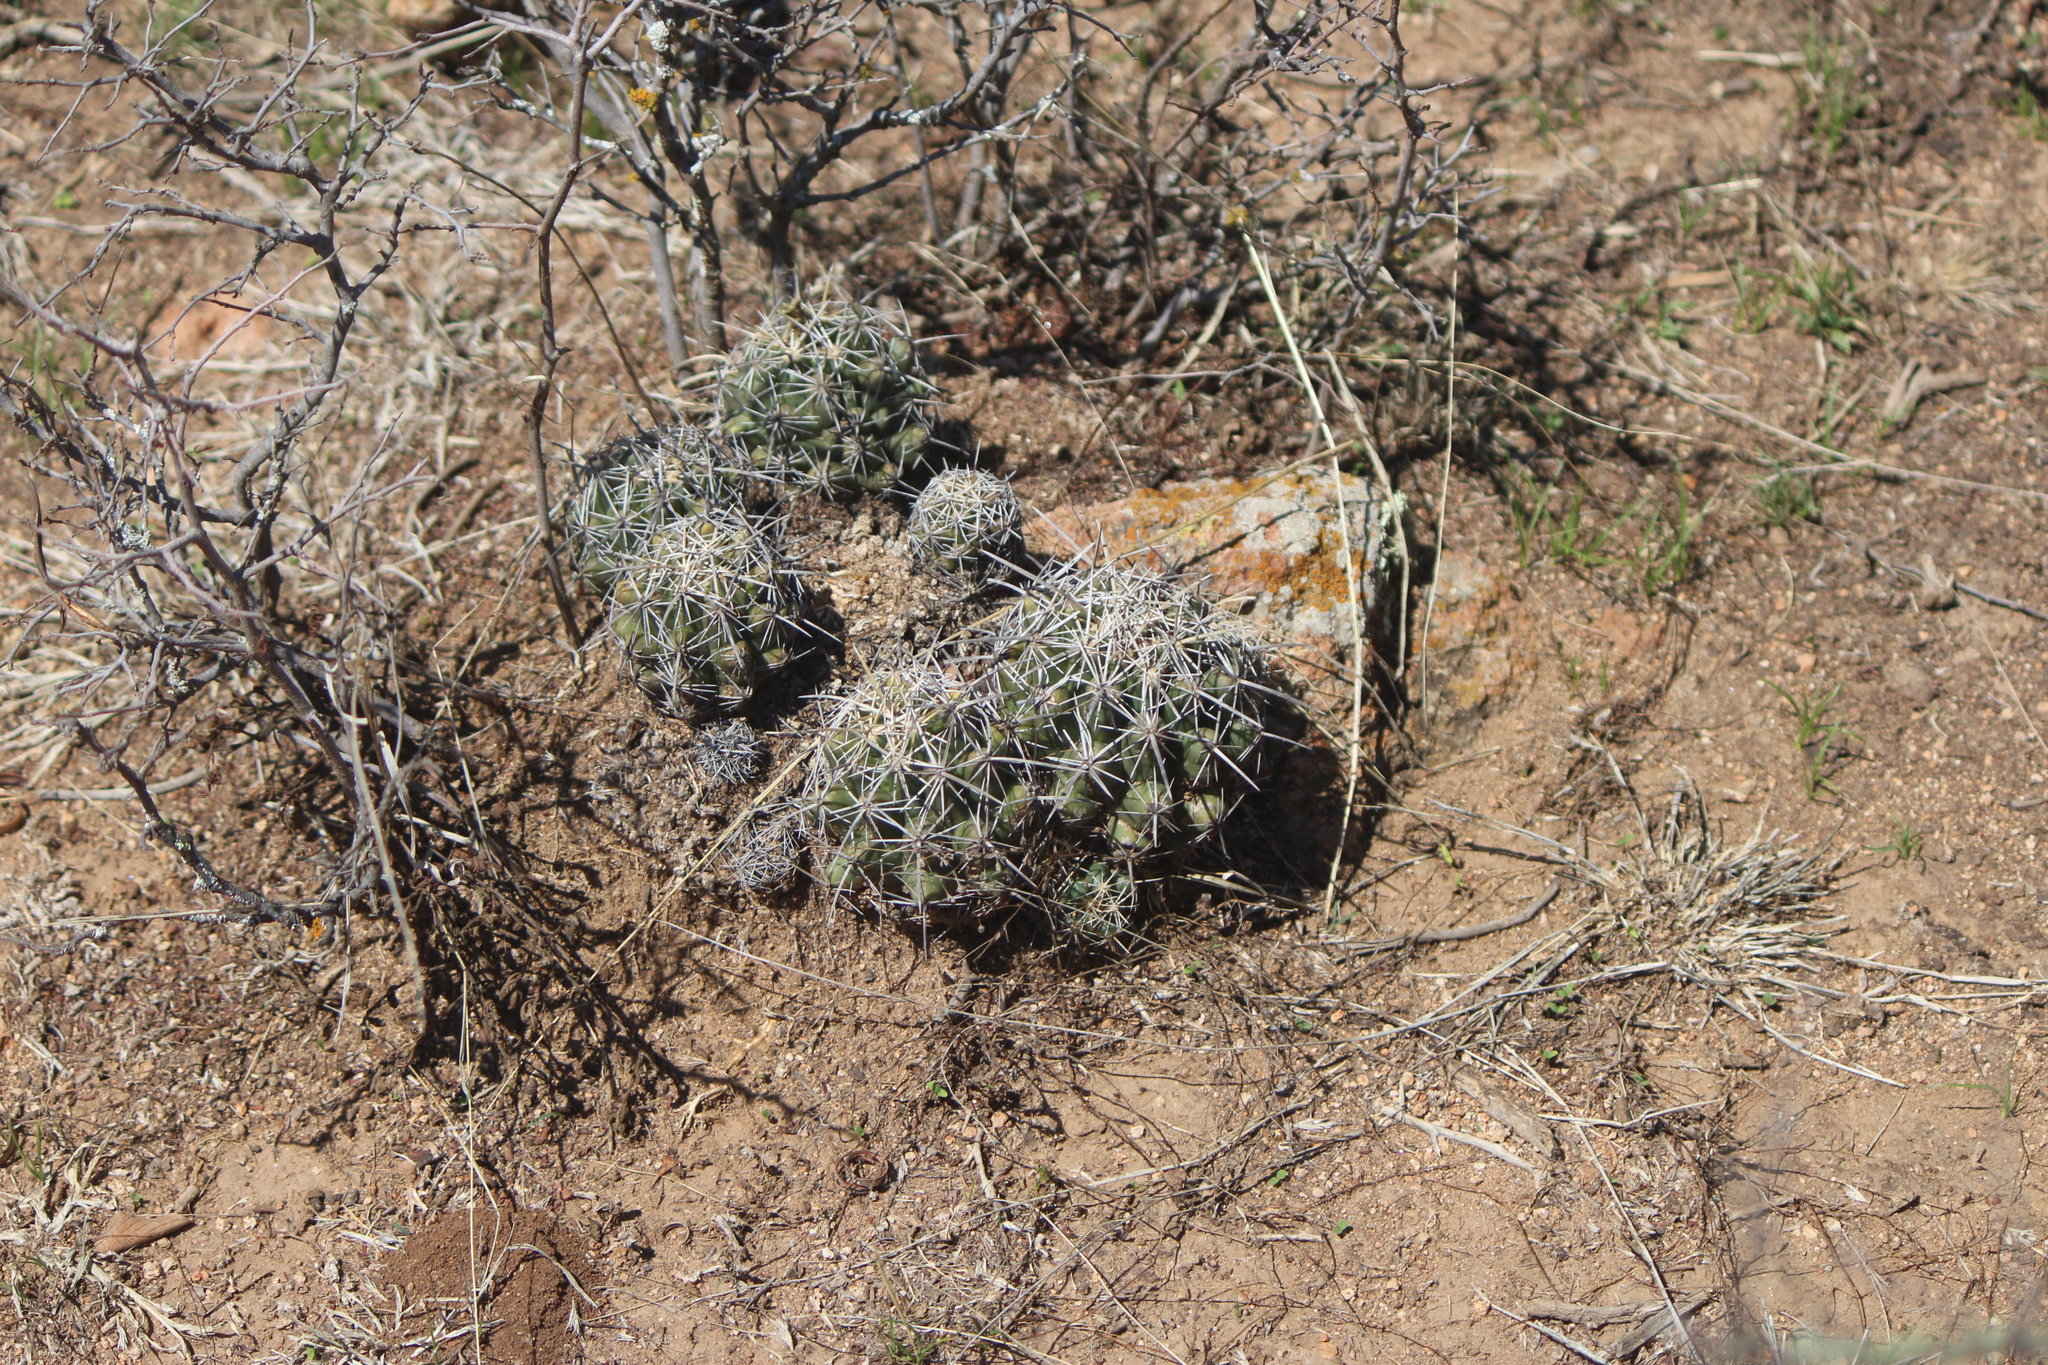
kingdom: Plantae
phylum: Tracheophyta
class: Magnoliopsida
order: Caryophyllales
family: Cactaceae
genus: Thelocactus
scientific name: Thelocactus leucacanthus
